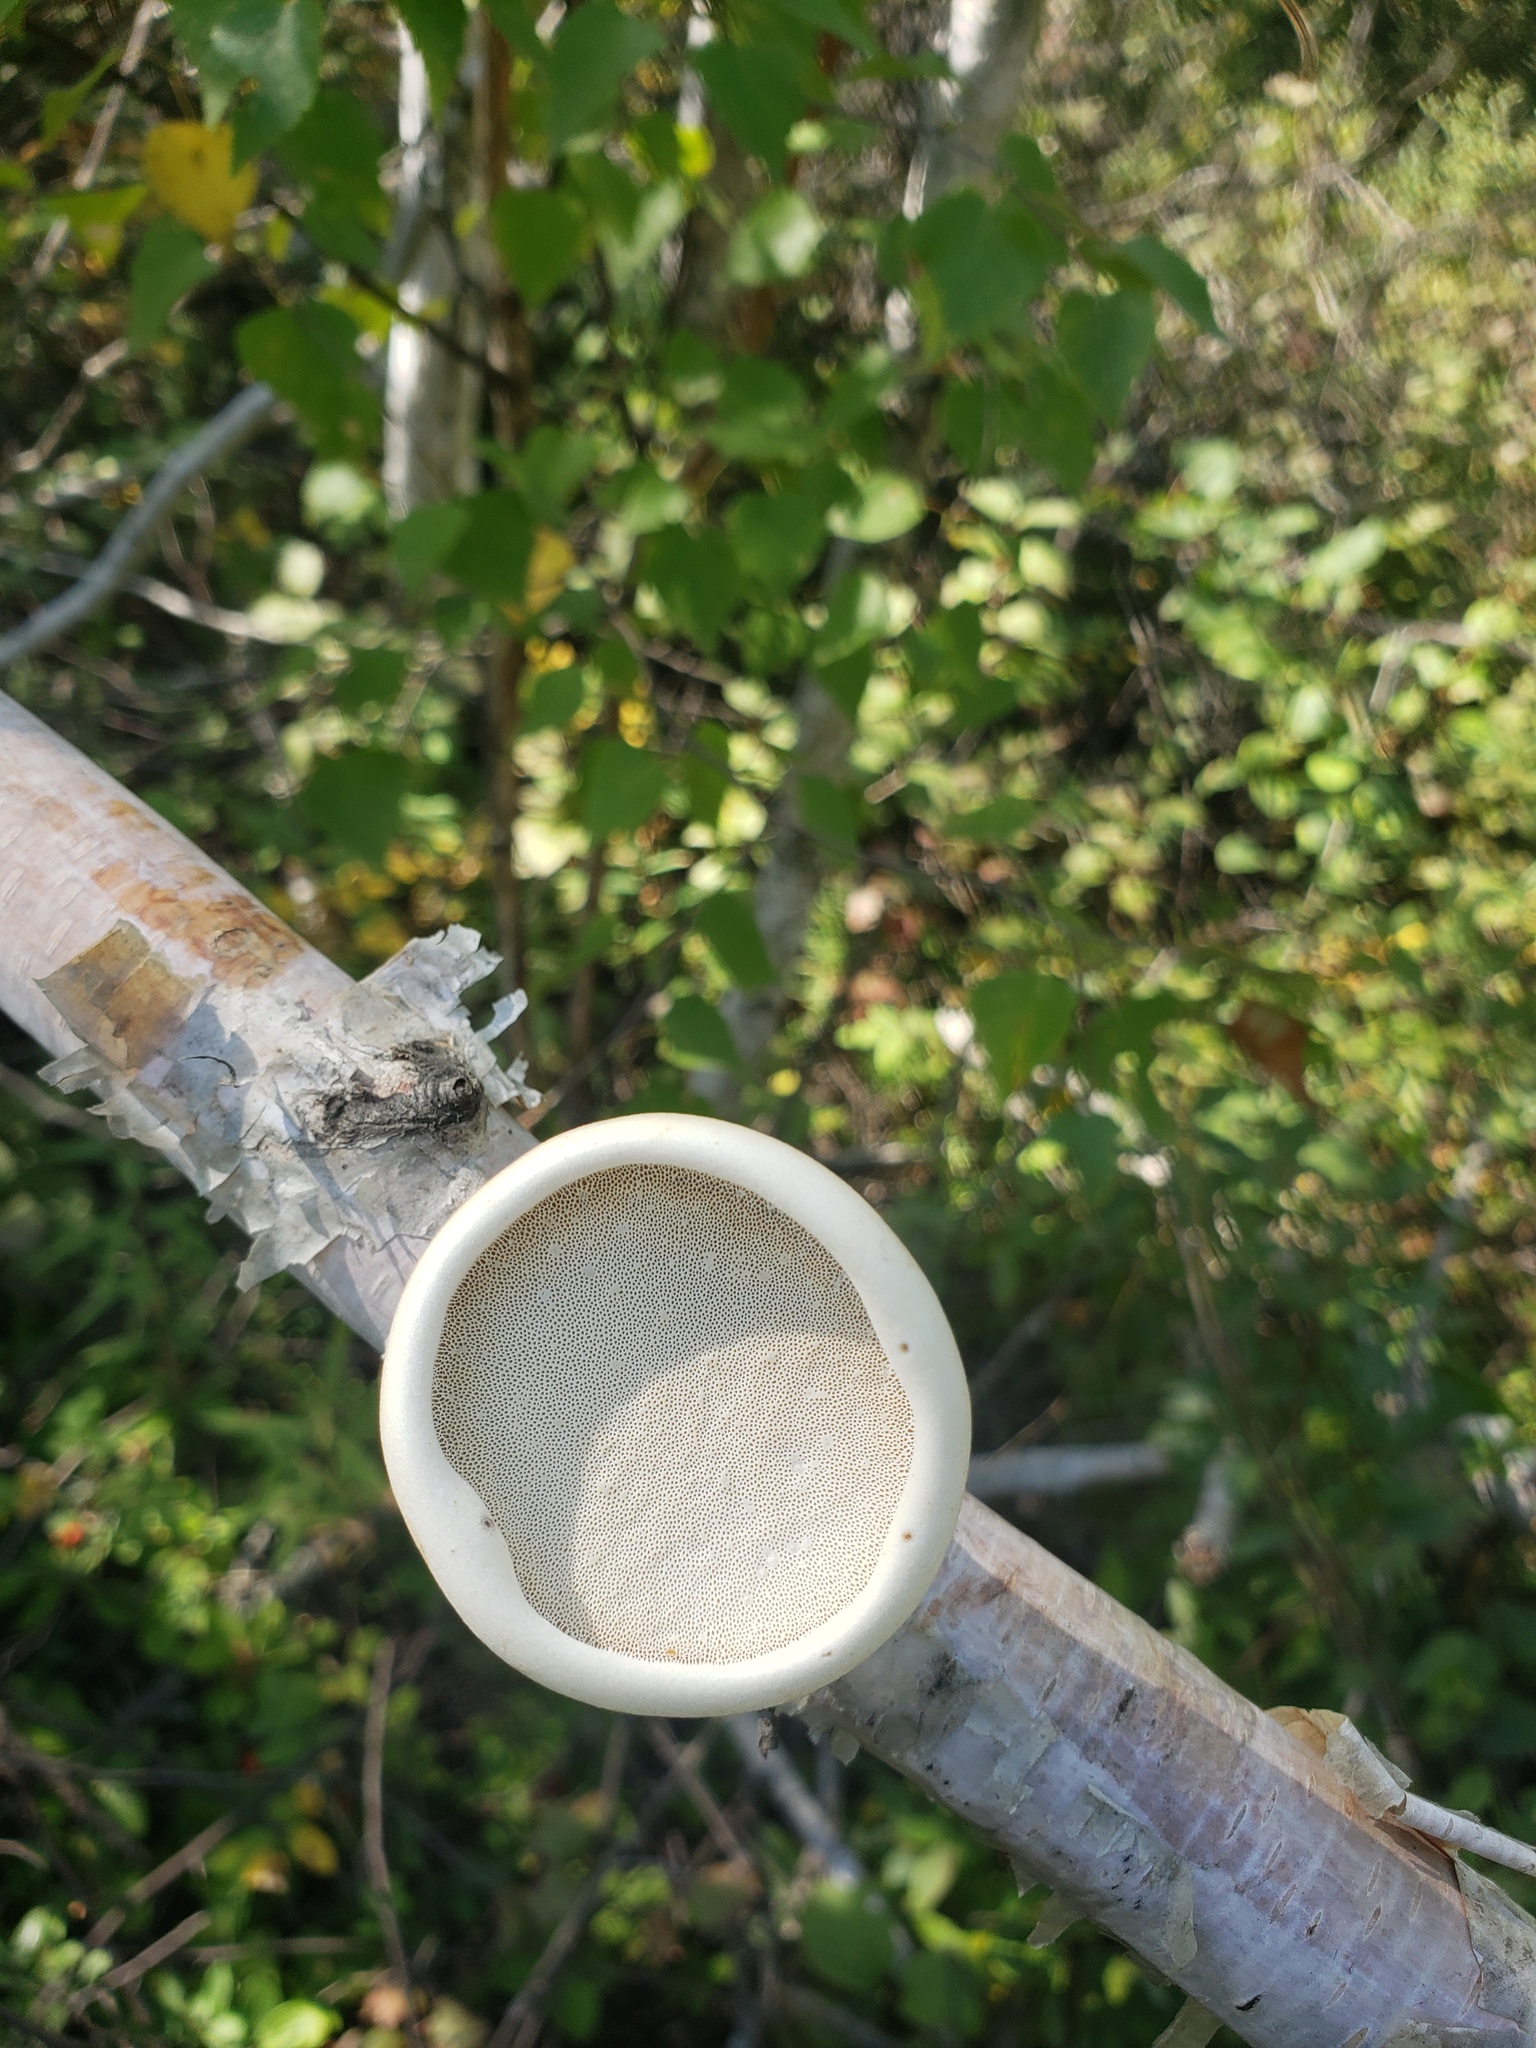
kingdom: Fungi
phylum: Basidiomycota
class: Agaricomycetes
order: Polyporales
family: Fomitopsidaceae
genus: Fomitopsis
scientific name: Fomitopsis betulina
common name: Birch polypore
